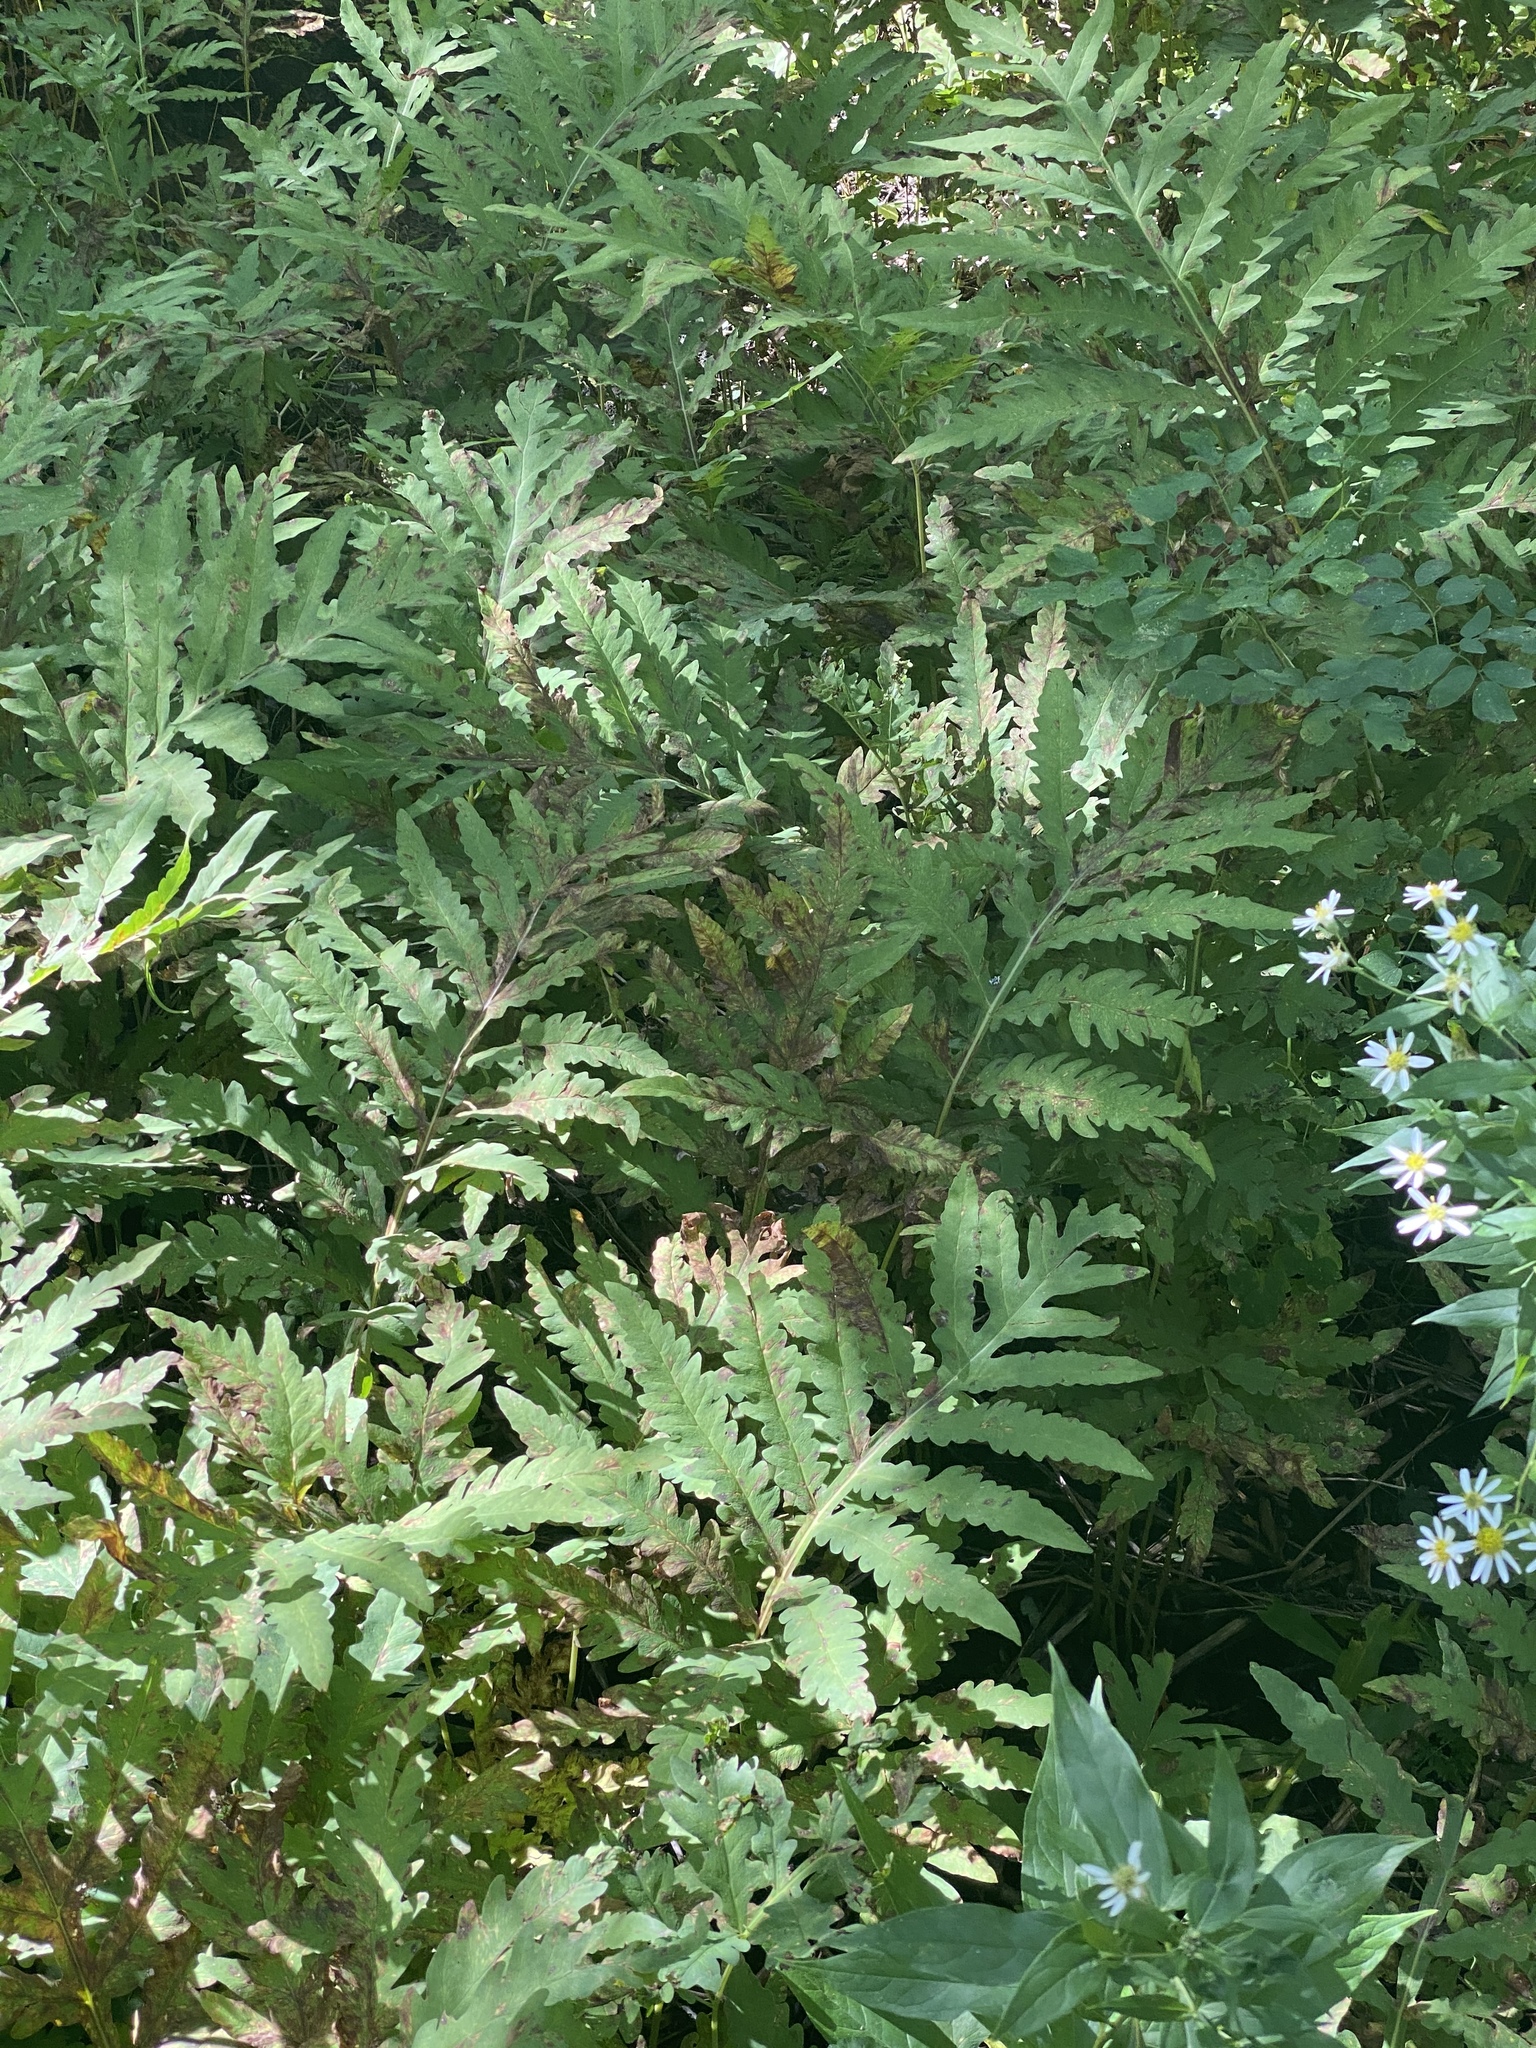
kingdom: Plantae
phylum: Tracheophyta
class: Polypodiopsida
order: Polypodiales
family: Onocleaceae
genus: Onoclea
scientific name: Onoclea sensibilis
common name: Sensitive fern
